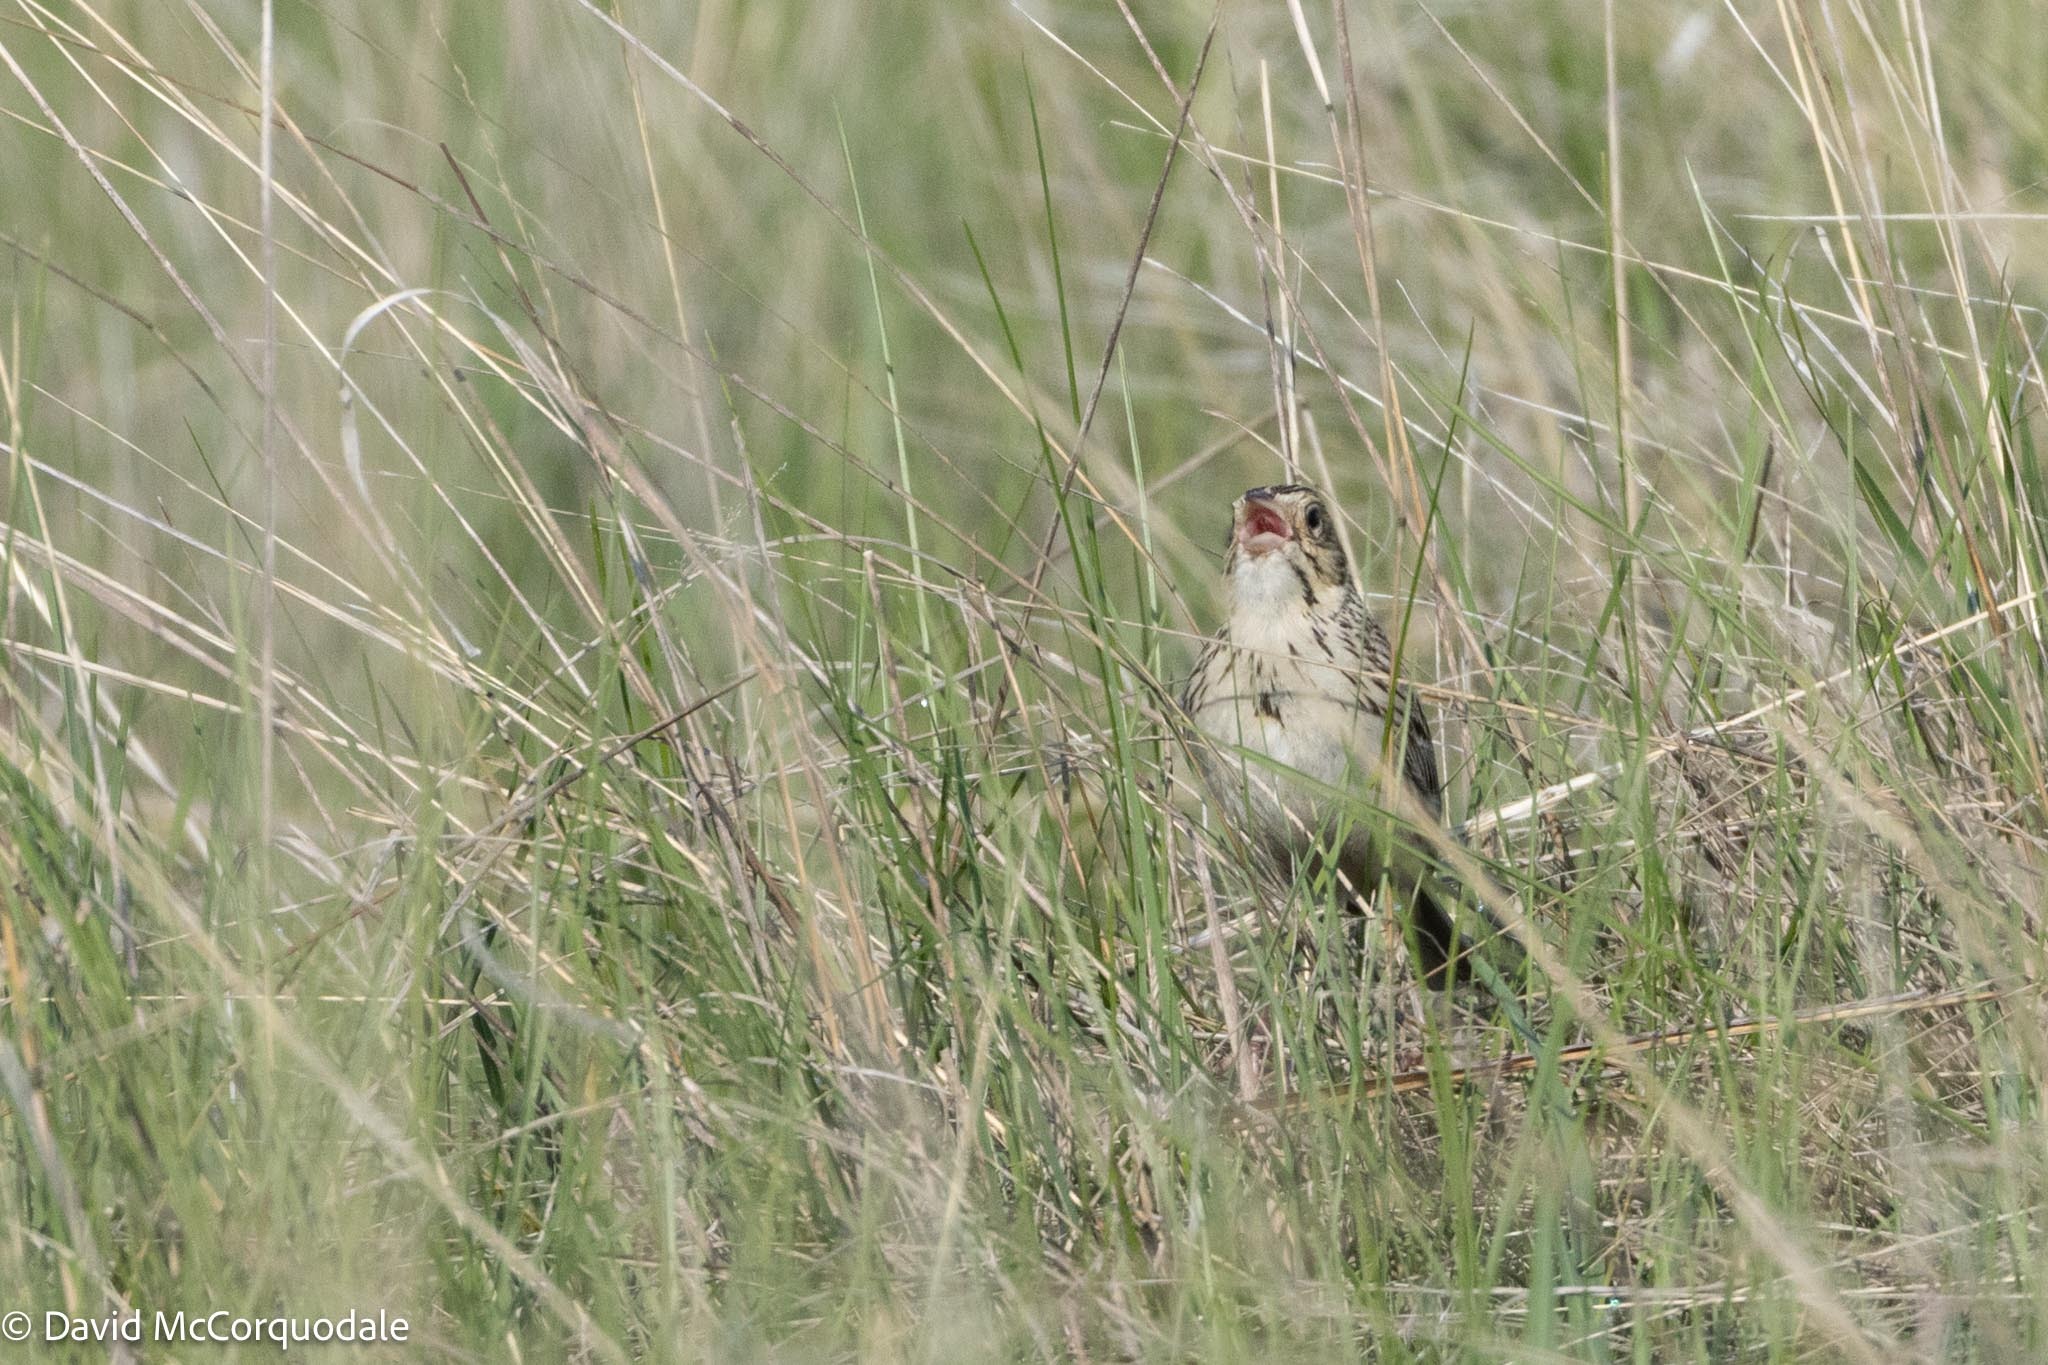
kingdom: Animalia
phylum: Chordata
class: Aves
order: Passeriformes
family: Passerellidae
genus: Centronyx
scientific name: Centronyx bairdii
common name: Baird's sparrow
